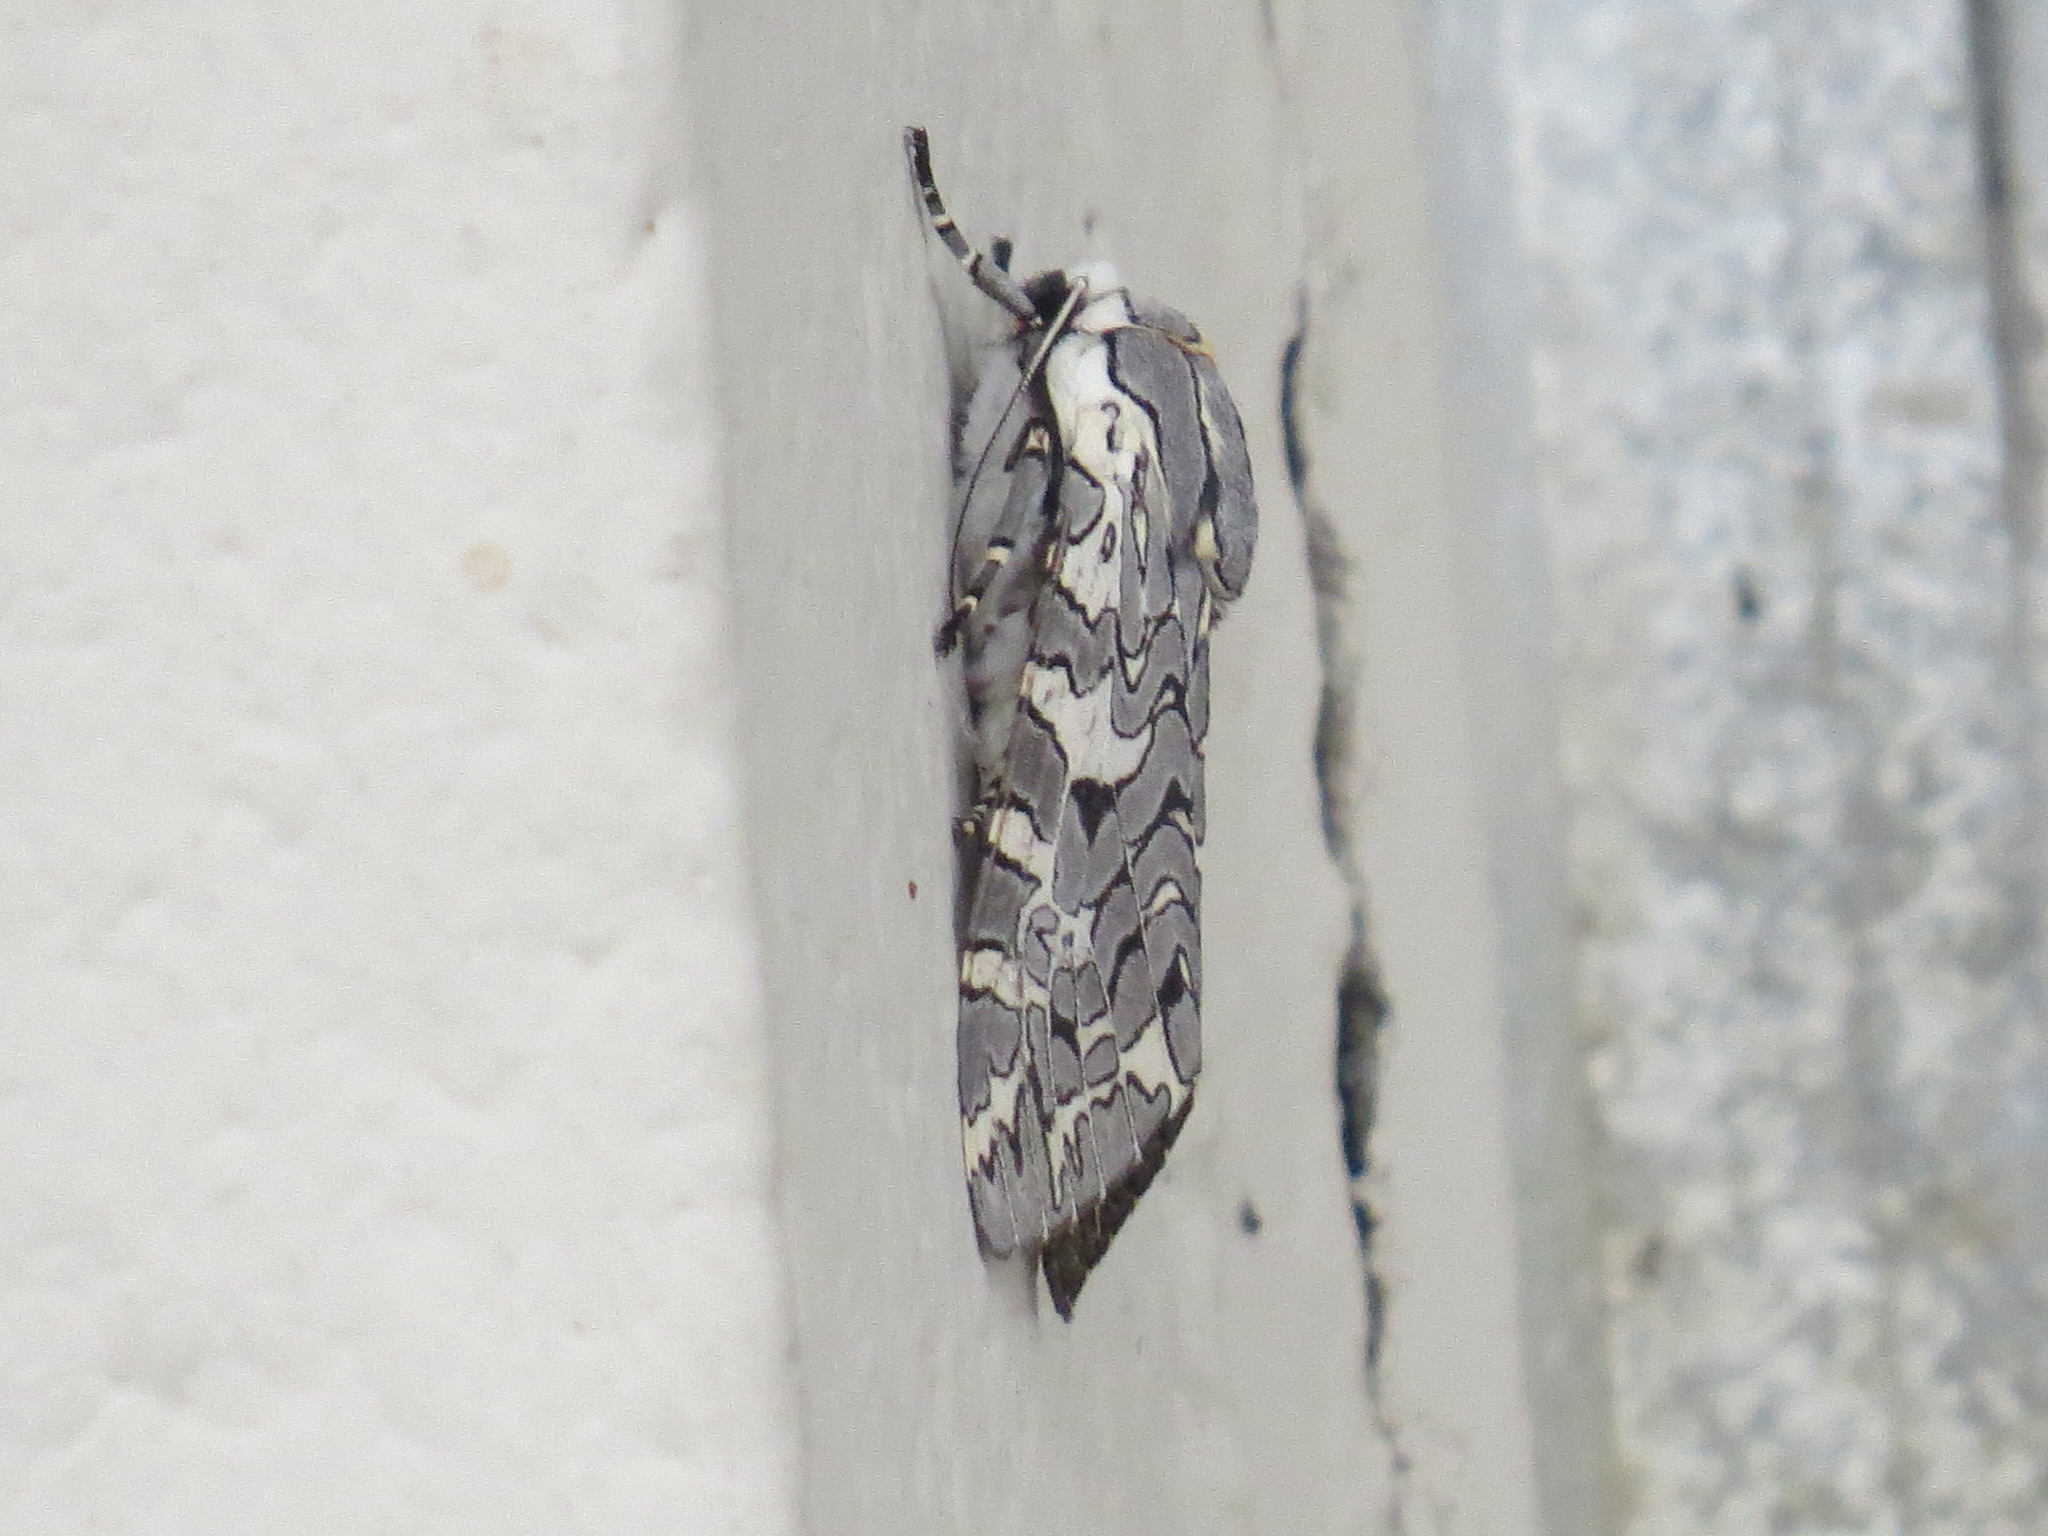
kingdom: Animalia
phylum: Arthropoda
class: Insecta
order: Lepidoptera
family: Erebidae
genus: Arachnis
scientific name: Arachnis picta
